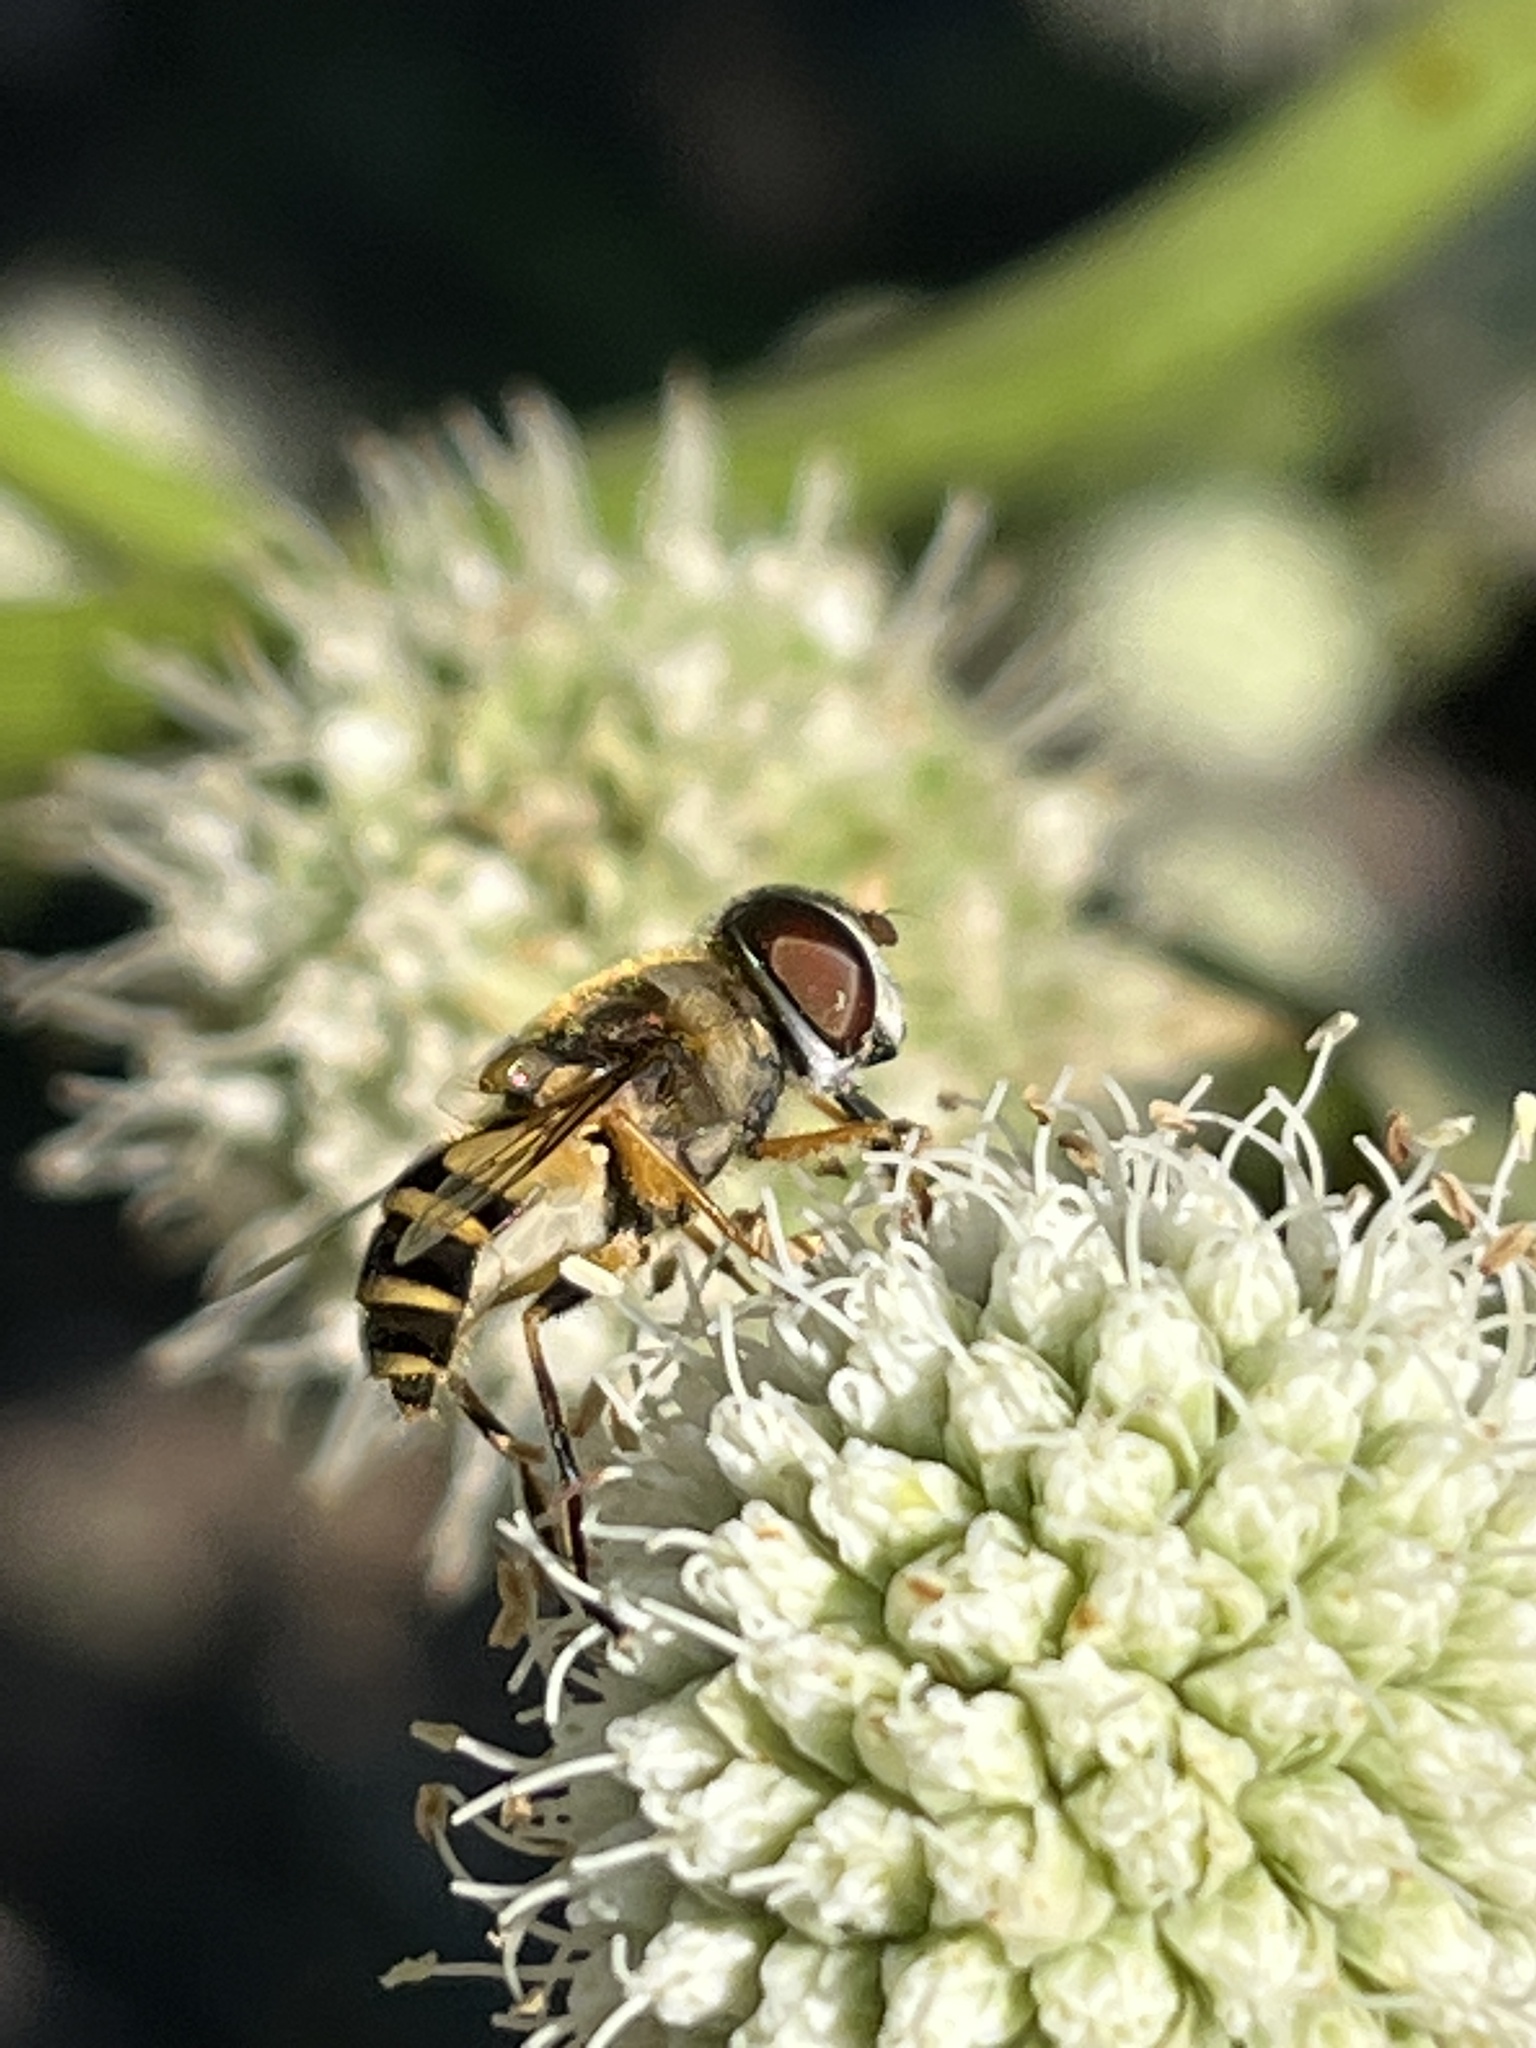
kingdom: Animalia
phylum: Arthropoda
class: Insecta
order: Diptera
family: Syrphidae
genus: Eristalis
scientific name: Eristalis transversa
